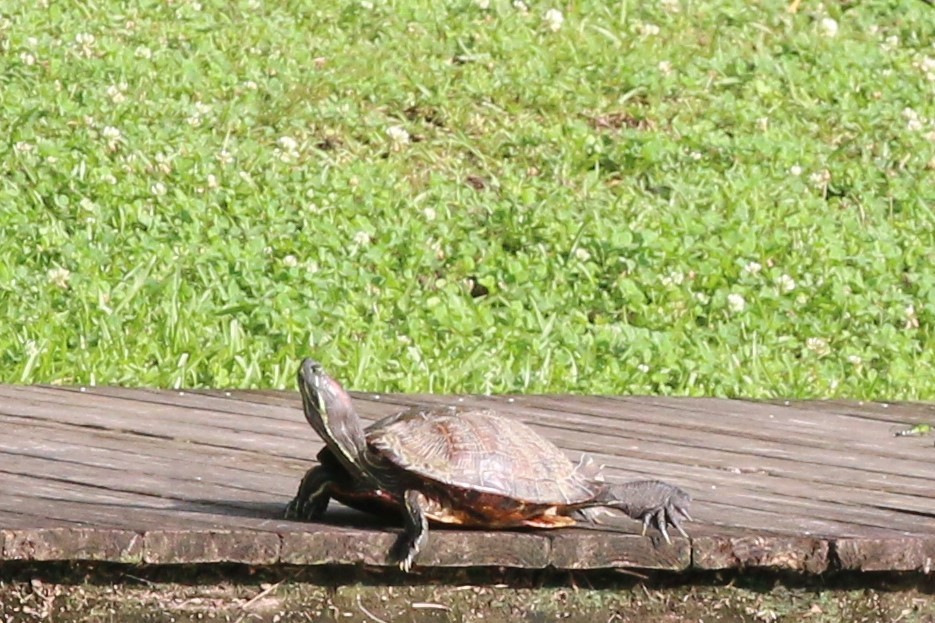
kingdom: Animalia
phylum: Chordata
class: Testudines
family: Emydidae
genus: Trachemys
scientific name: Trachemys scripta
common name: Slider
